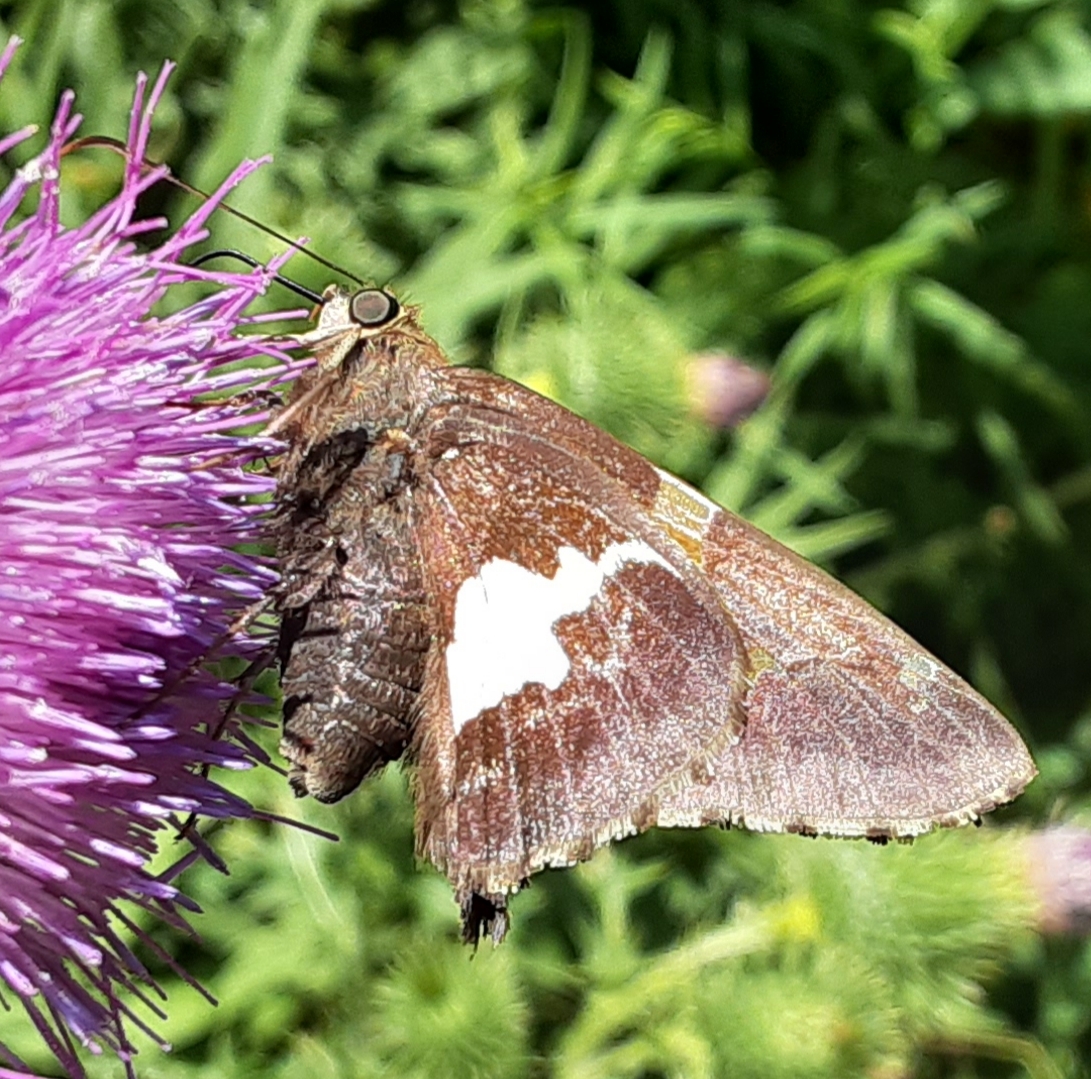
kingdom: Animalia
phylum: Arthropoda
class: Insecta
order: Lepidoptera
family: Hesperiidae
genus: Epargyreus
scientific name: Epargyreus clarus
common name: Silver-spotted skipper
